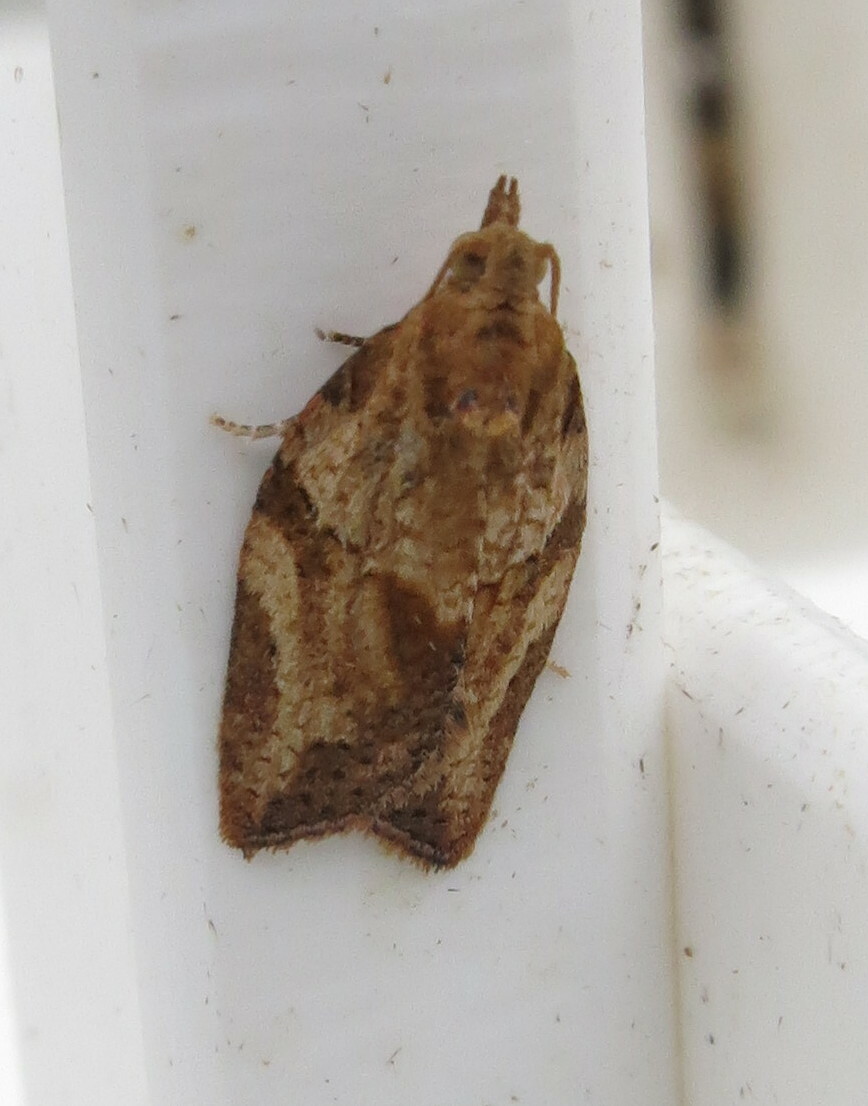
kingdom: Animalia
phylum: Arthropoda
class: Insecta
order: Lepidoptera
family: Tortricidae
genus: Epiphyas
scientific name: Epiphyas postvittana
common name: Light brown apple moth
